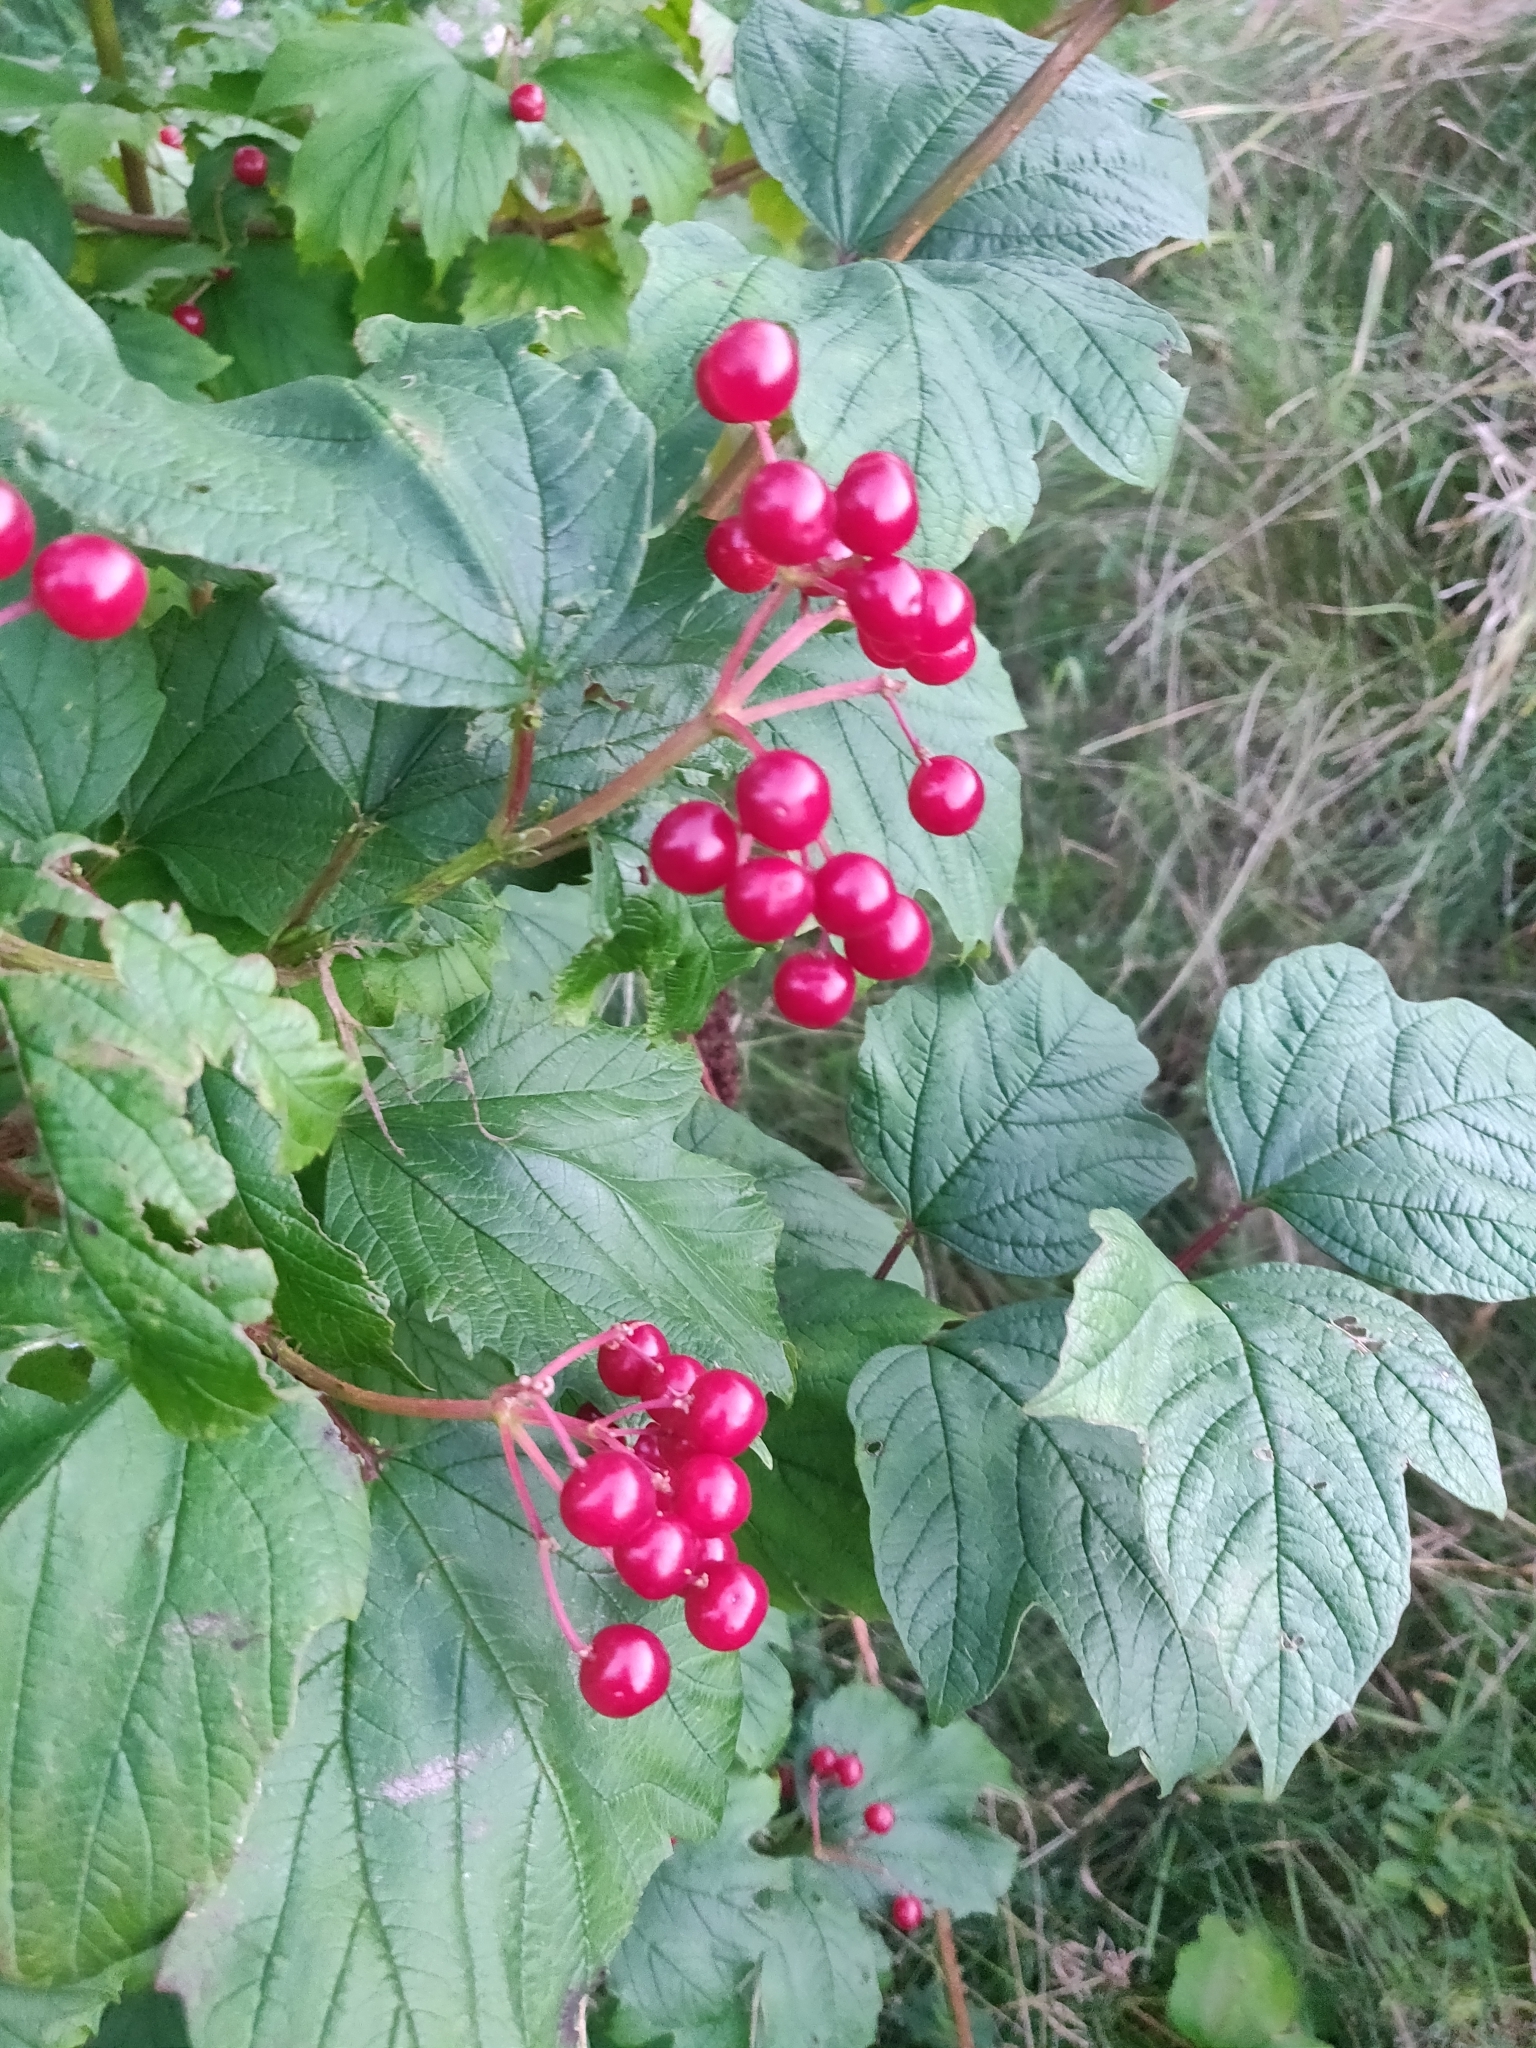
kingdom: Plantae
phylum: Tracheophyta
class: Magnoliopsida
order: Dipsacales
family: Viburnaceae
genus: Viburnum
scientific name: Viburnum opulus
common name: Guelder-rose
